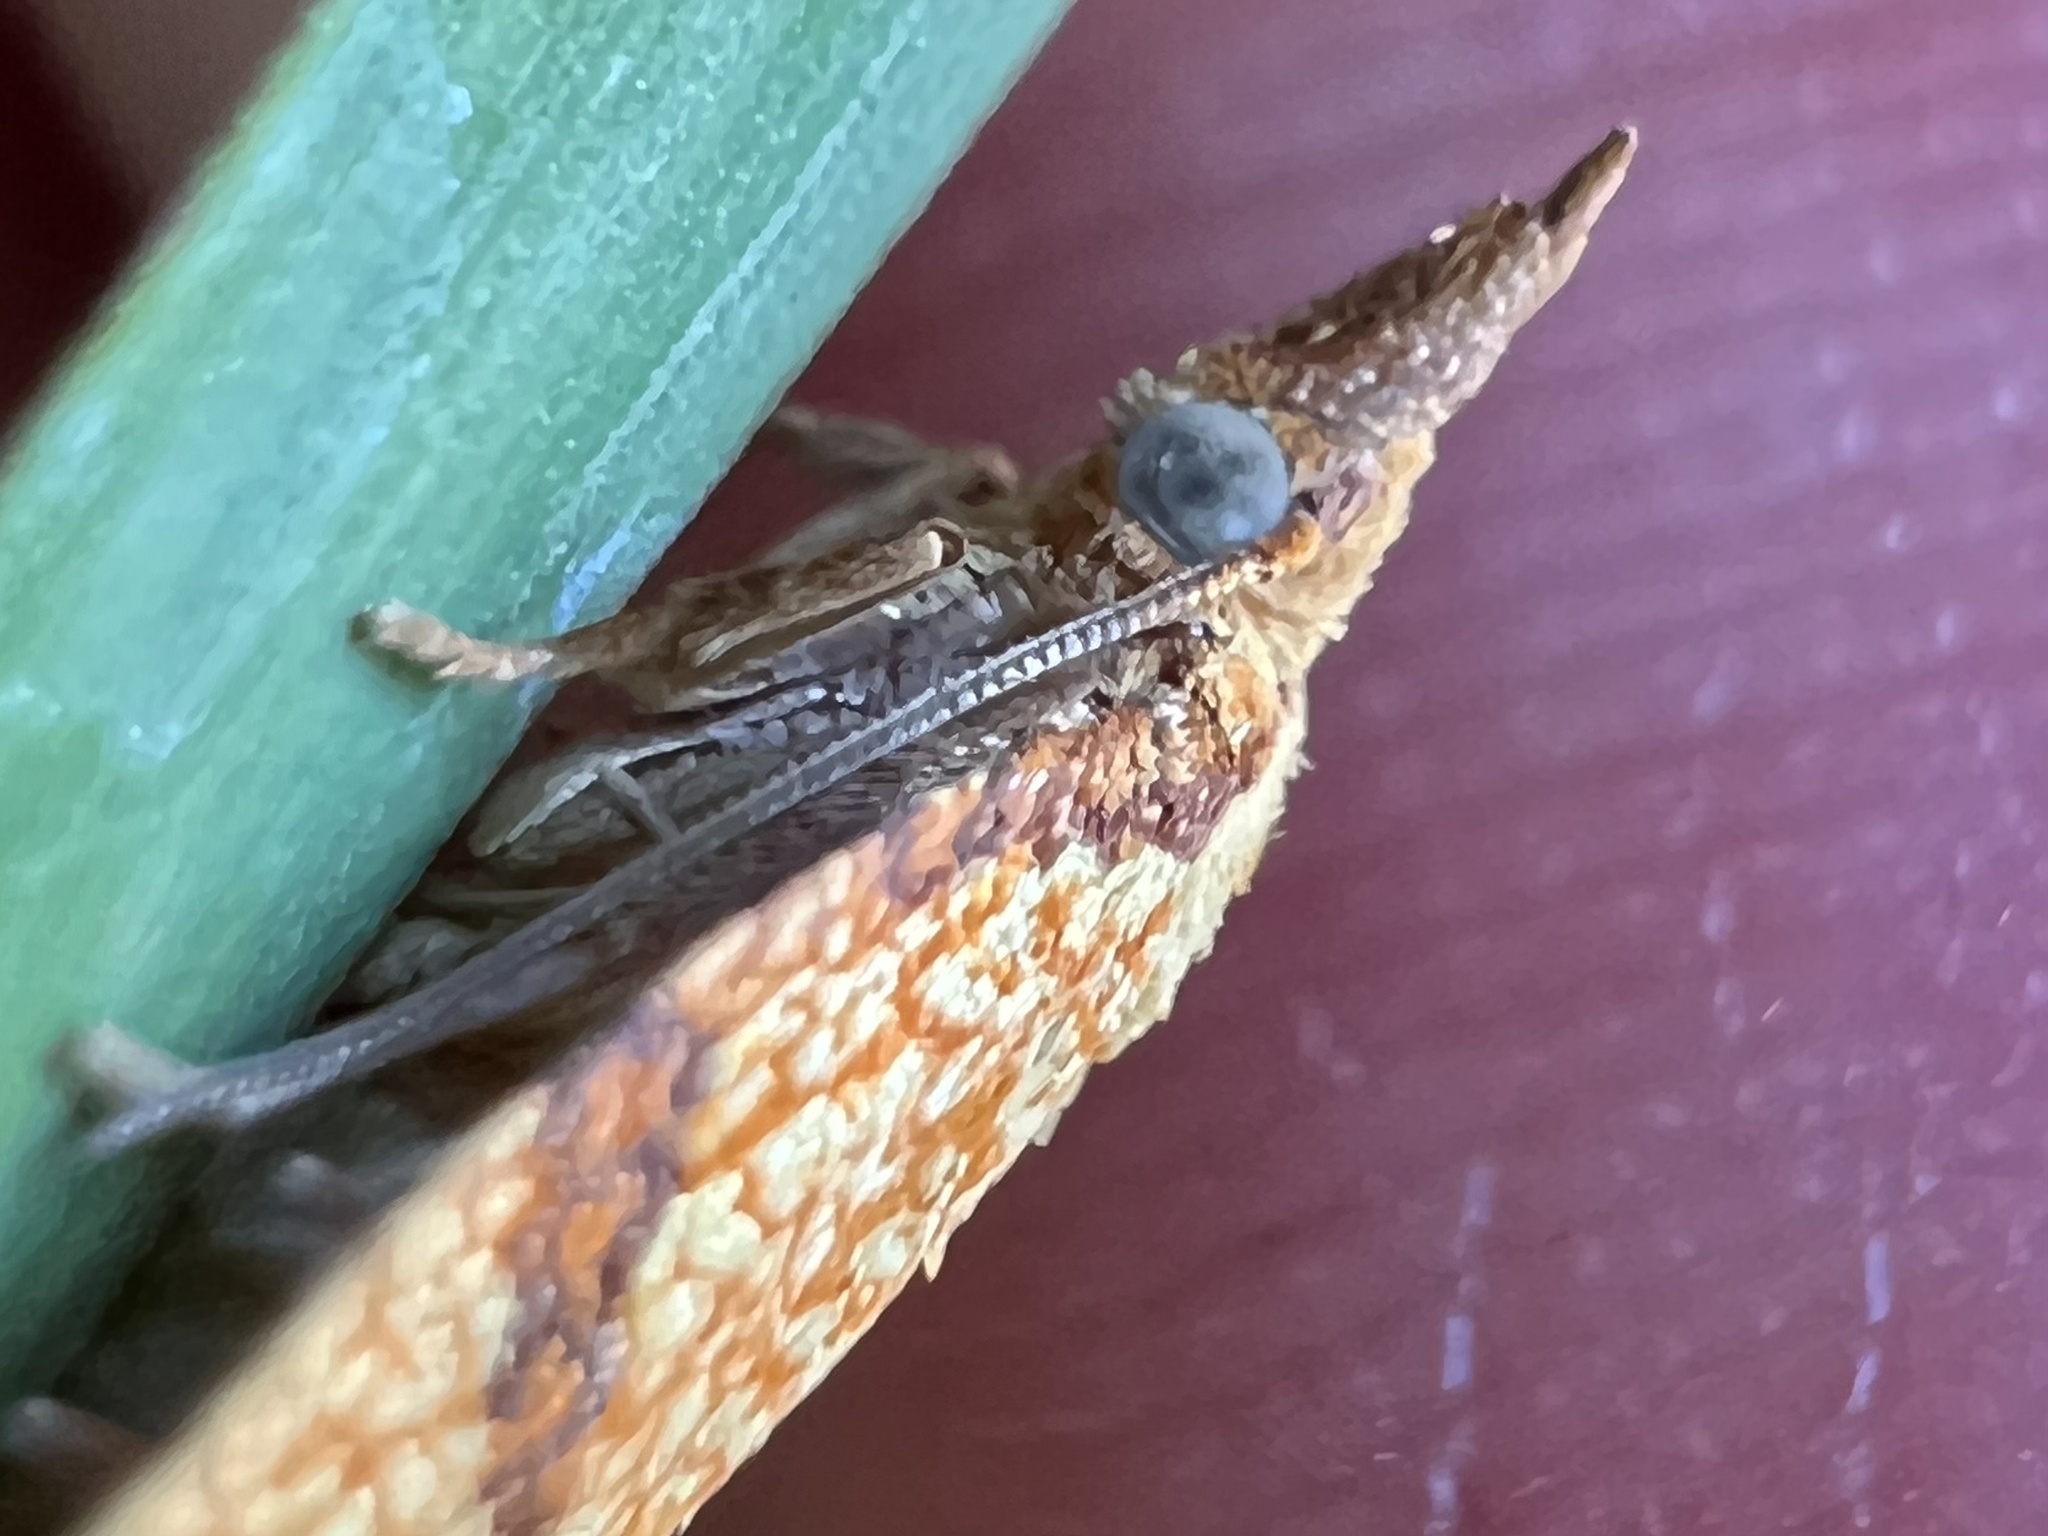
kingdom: Animalia
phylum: Arthropoda
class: Insecta
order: Lepidoptera
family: Tortricidae
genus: Cenopis
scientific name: Cenopis reticulatana
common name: Reticulated fruitworm moth
